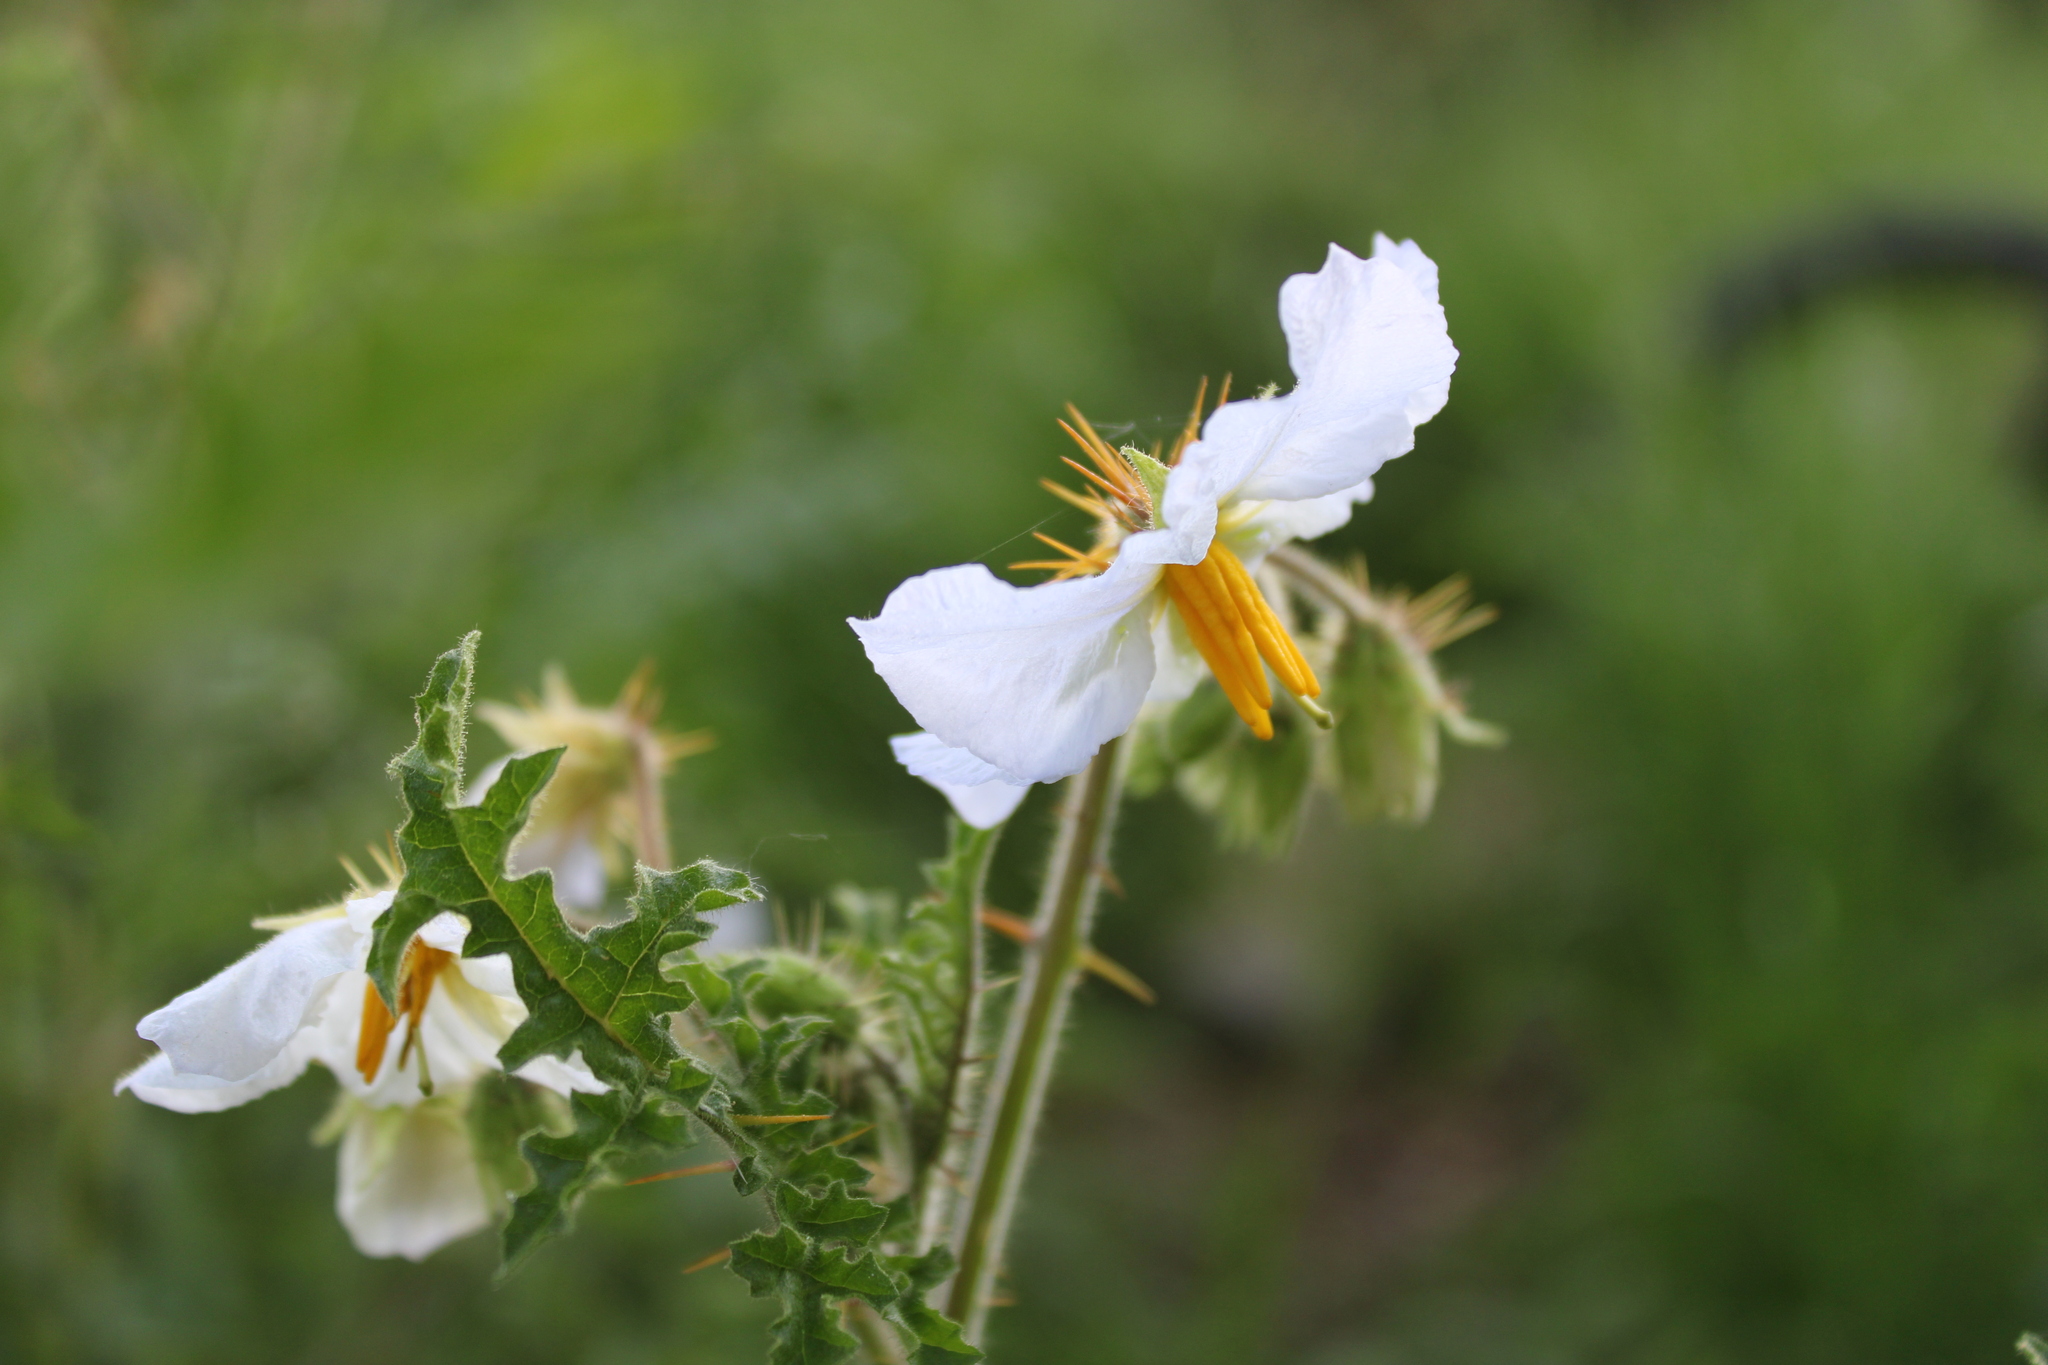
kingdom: Plantae
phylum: Tracheophyta
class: Magnoliopsida
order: Solanales
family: Solanaceae
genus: Solanum
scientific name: Solanum sisymbriifolium
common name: Red buffalo-bur
